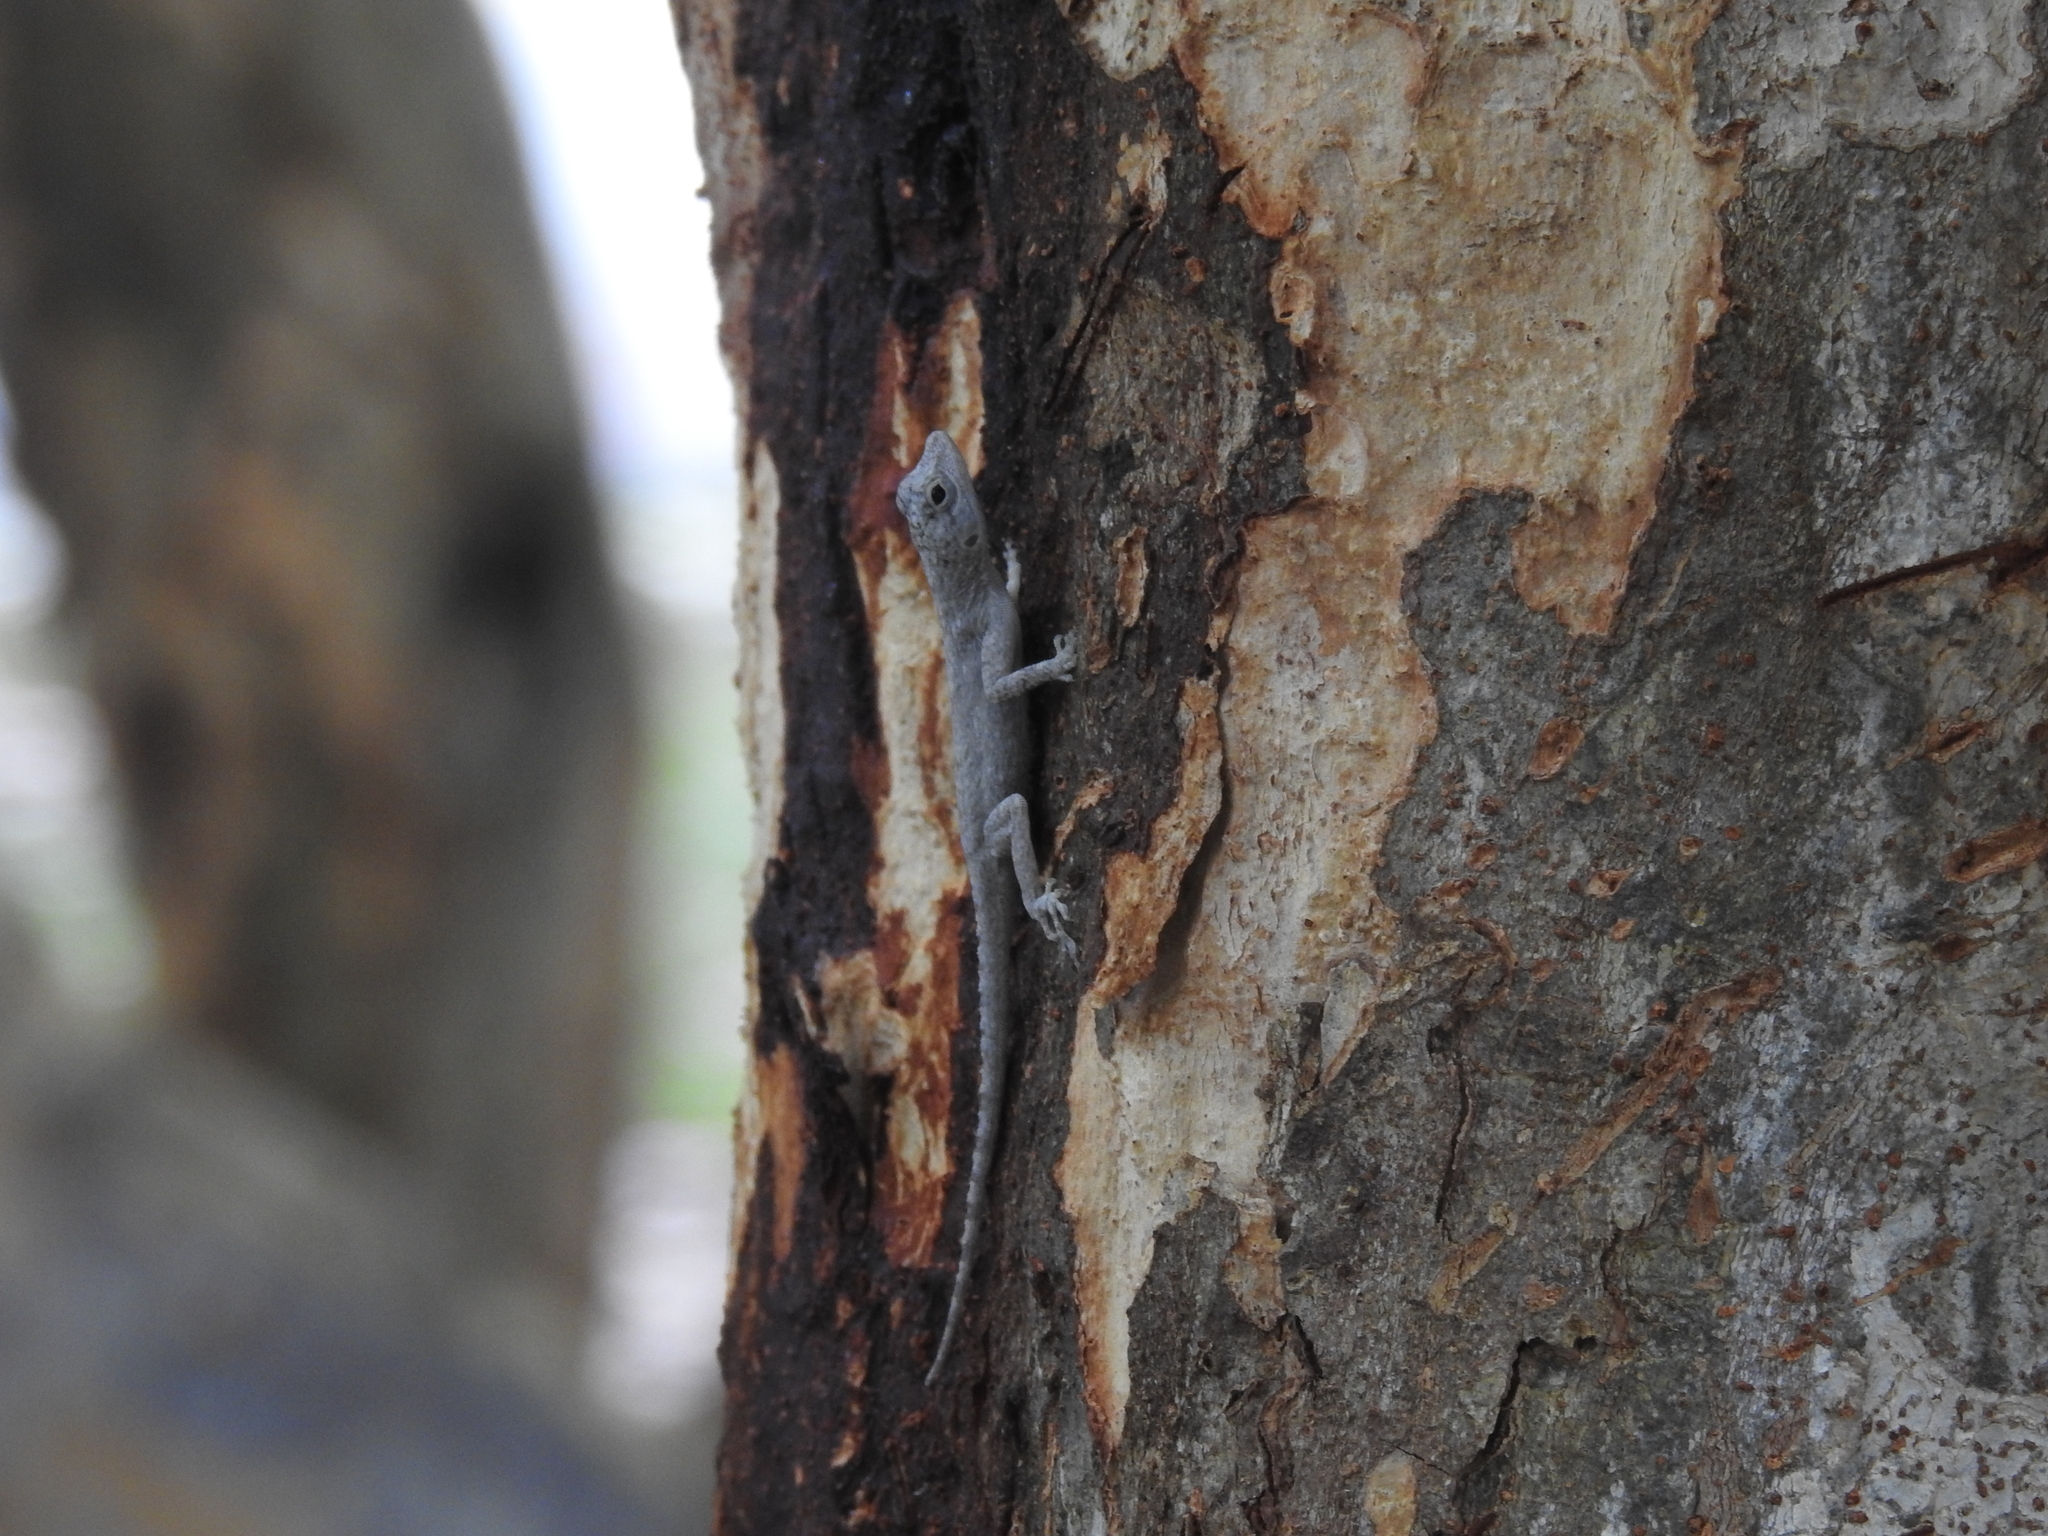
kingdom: Animalia
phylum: Chordata
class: Squamata
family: Dactyloidae
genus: Anolis
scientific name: Anolis distichus
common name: Bark anole
